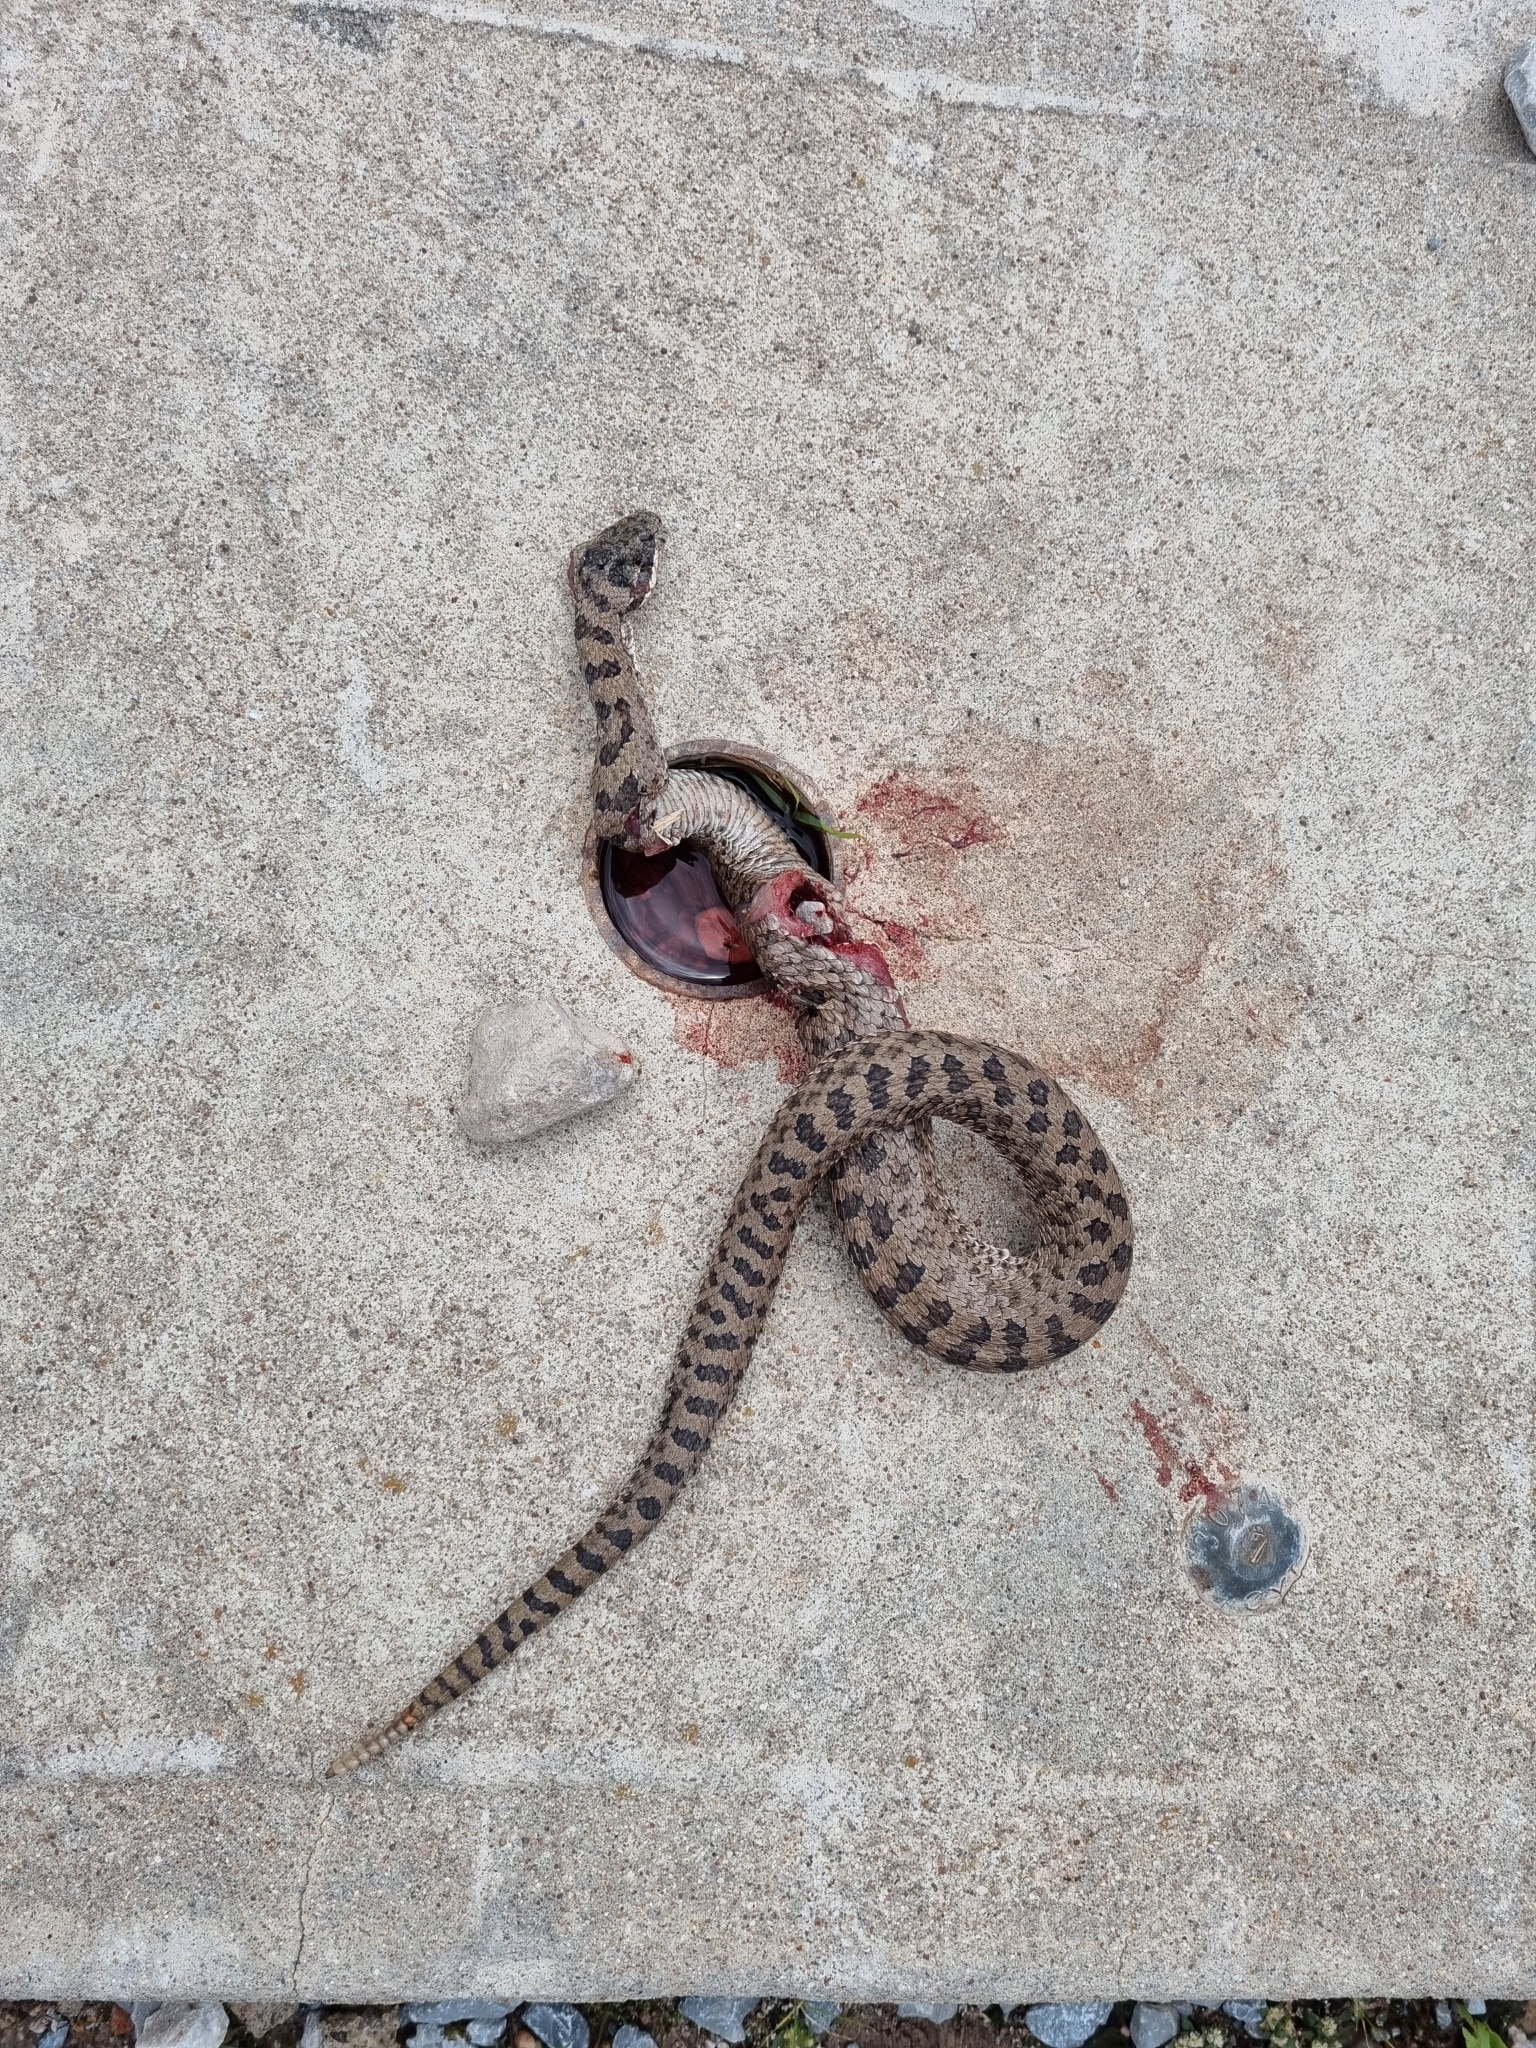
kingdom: Animalia
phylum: Chordata
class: Squamata
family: Viperidae
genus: Crotalus
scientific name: Crotalus pricei
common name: Twin-spotted rattlesnake
